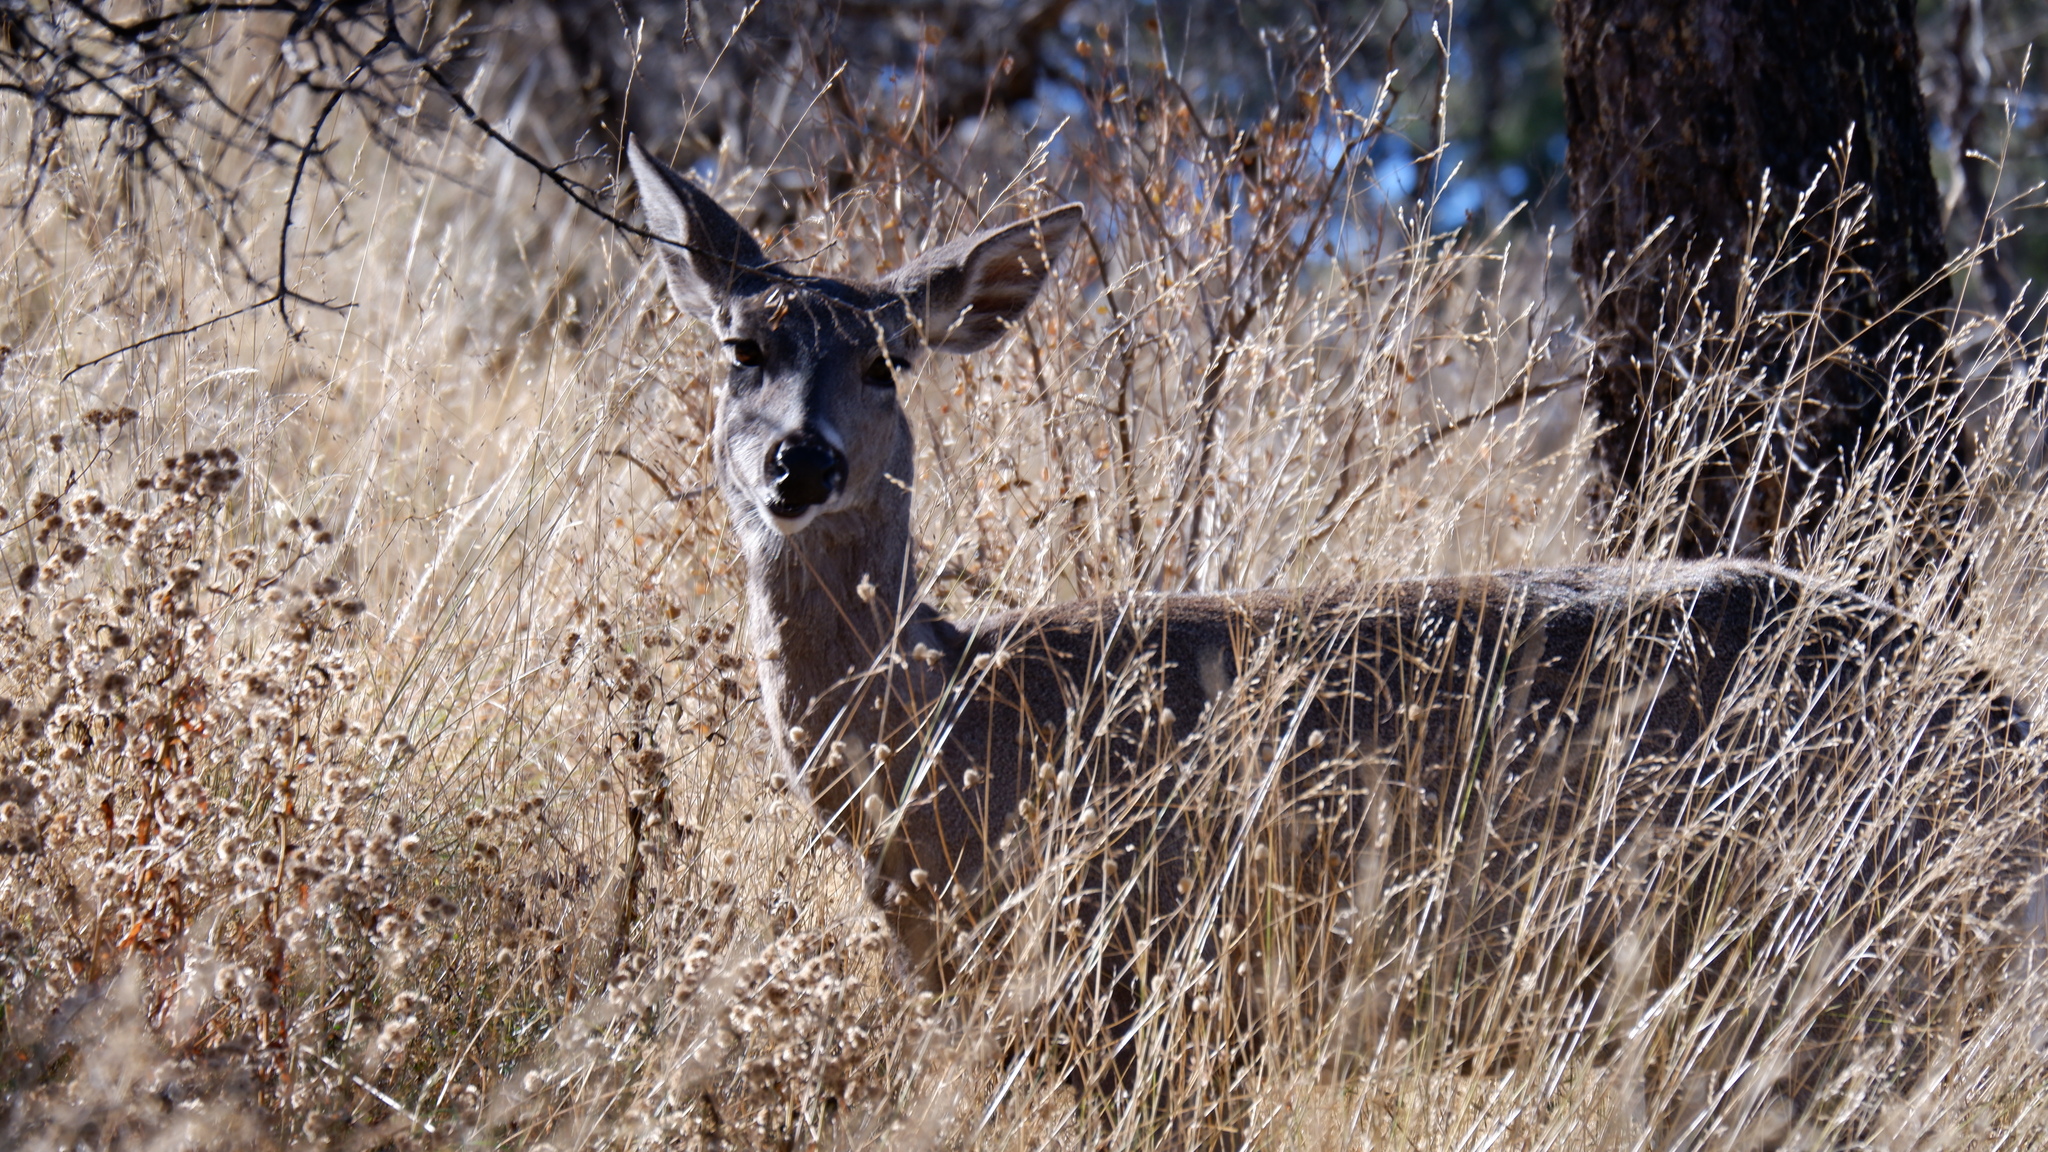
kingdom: Animalia
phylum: Chordata
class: Mammalia
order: Artiodactyla
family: Cervidae
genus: Odocoileus
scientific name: Odocoileus virginianus
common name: White-tailed deer
